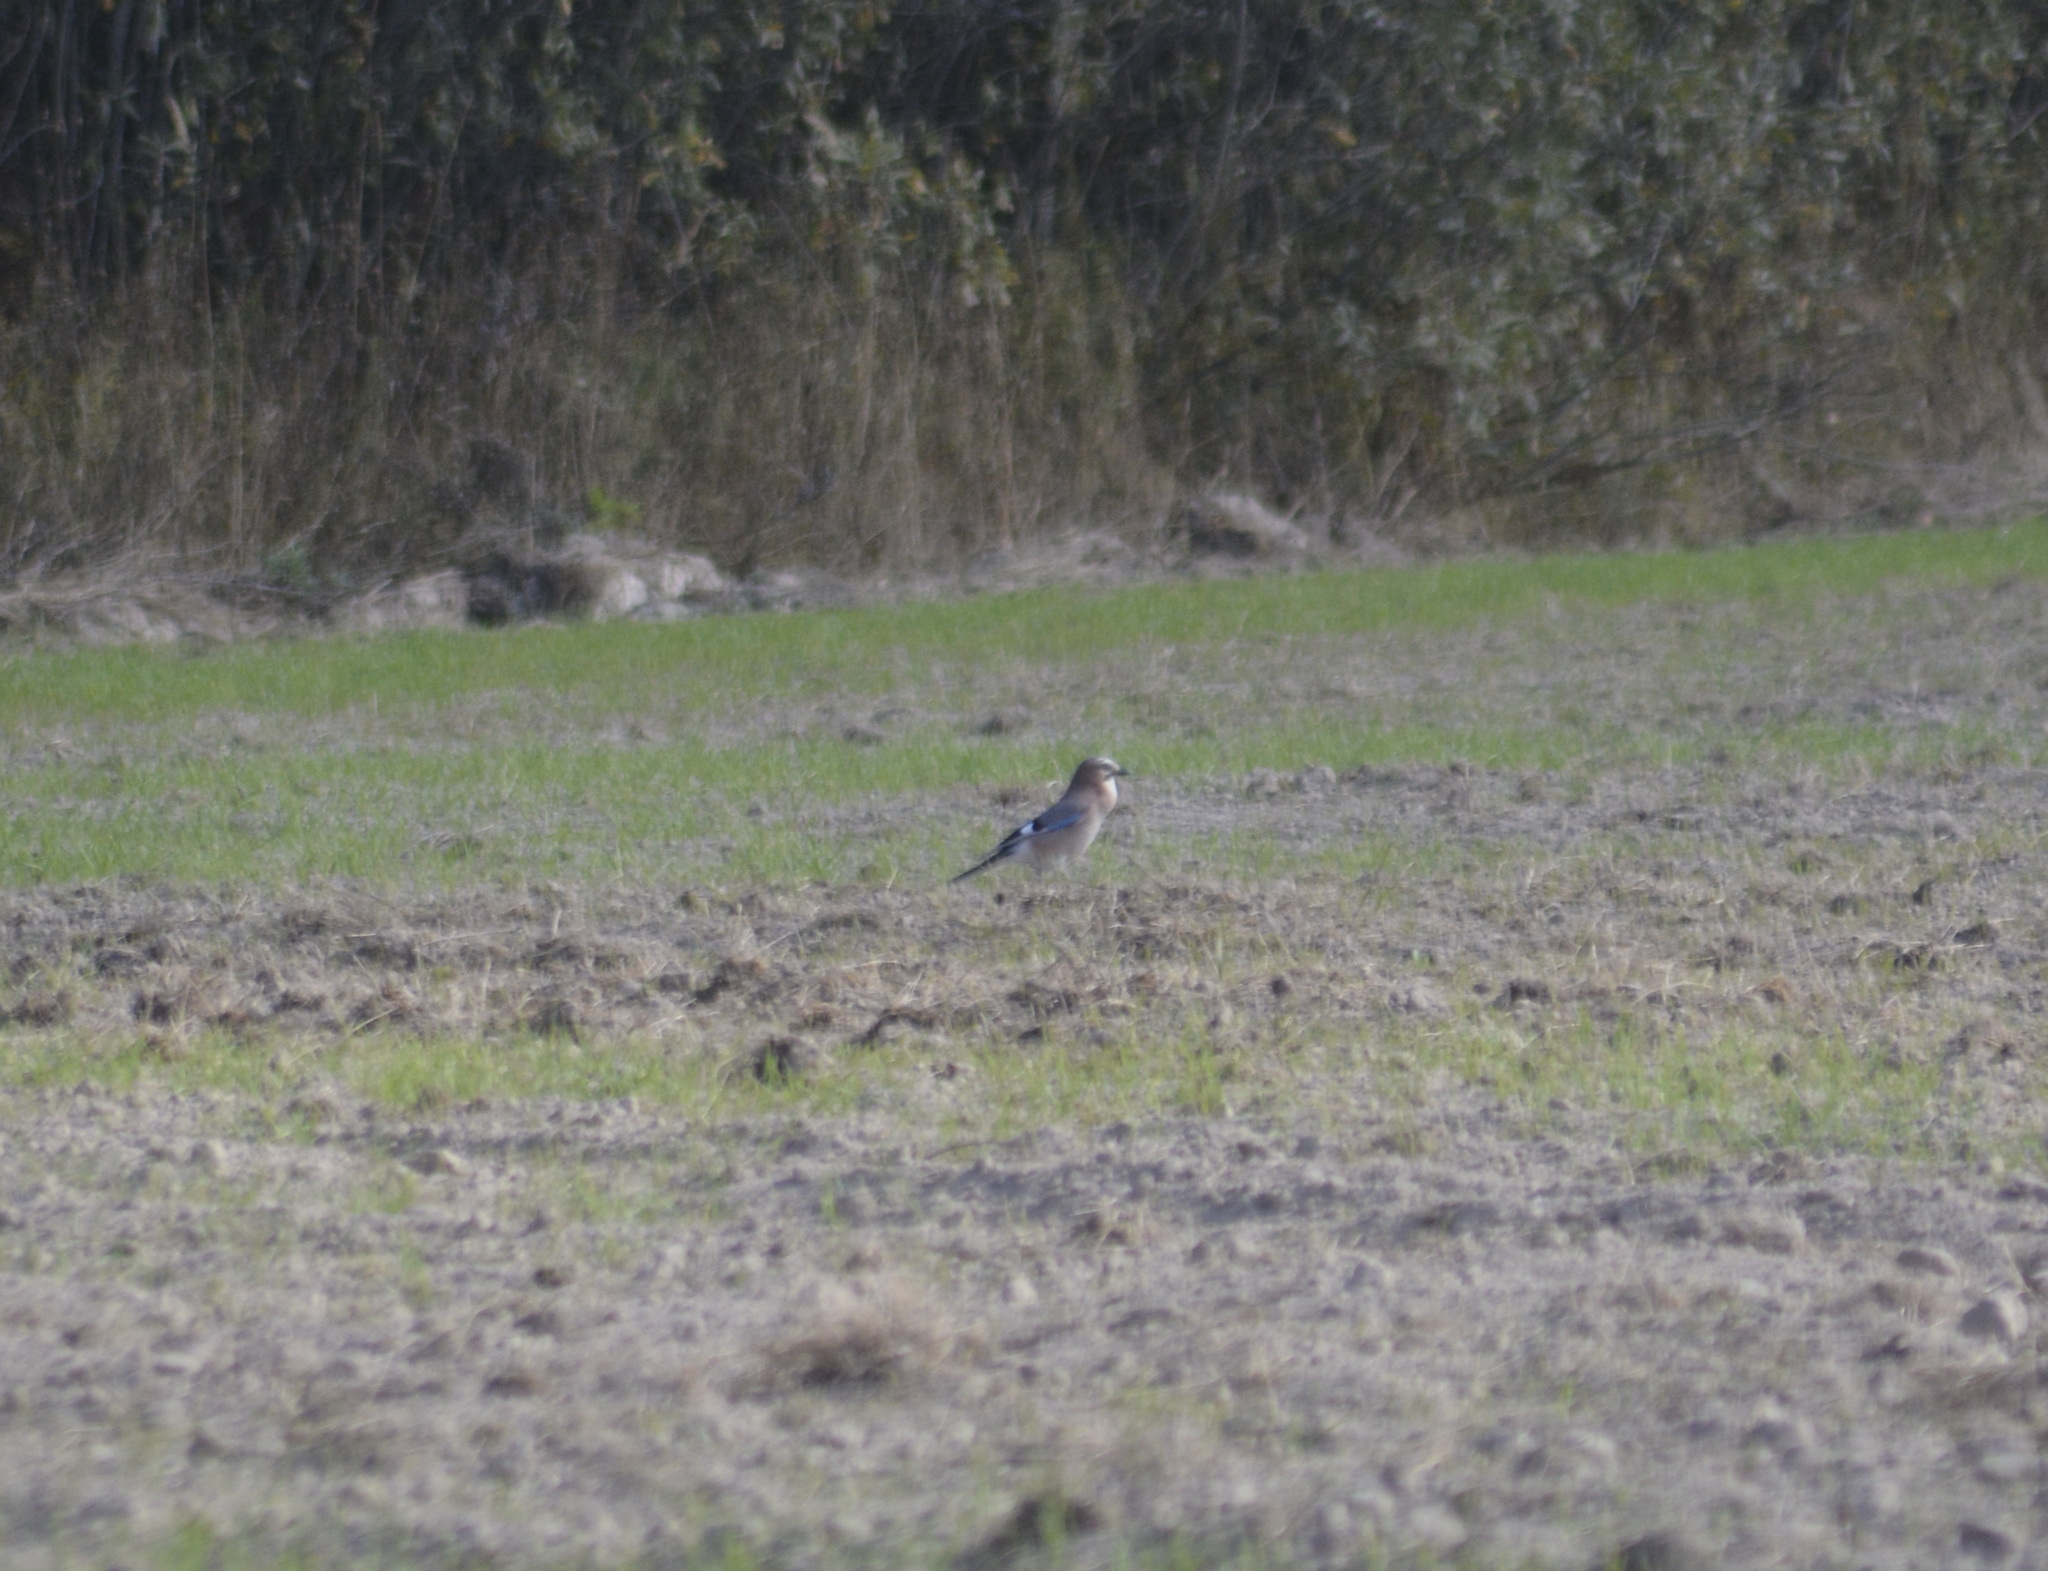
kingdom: Animalia
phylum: Chordata
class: Aves
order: Passeriformes
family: Corvidae
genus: Garrulus
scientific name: Garrulus glandarius
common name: Eurasian jay
